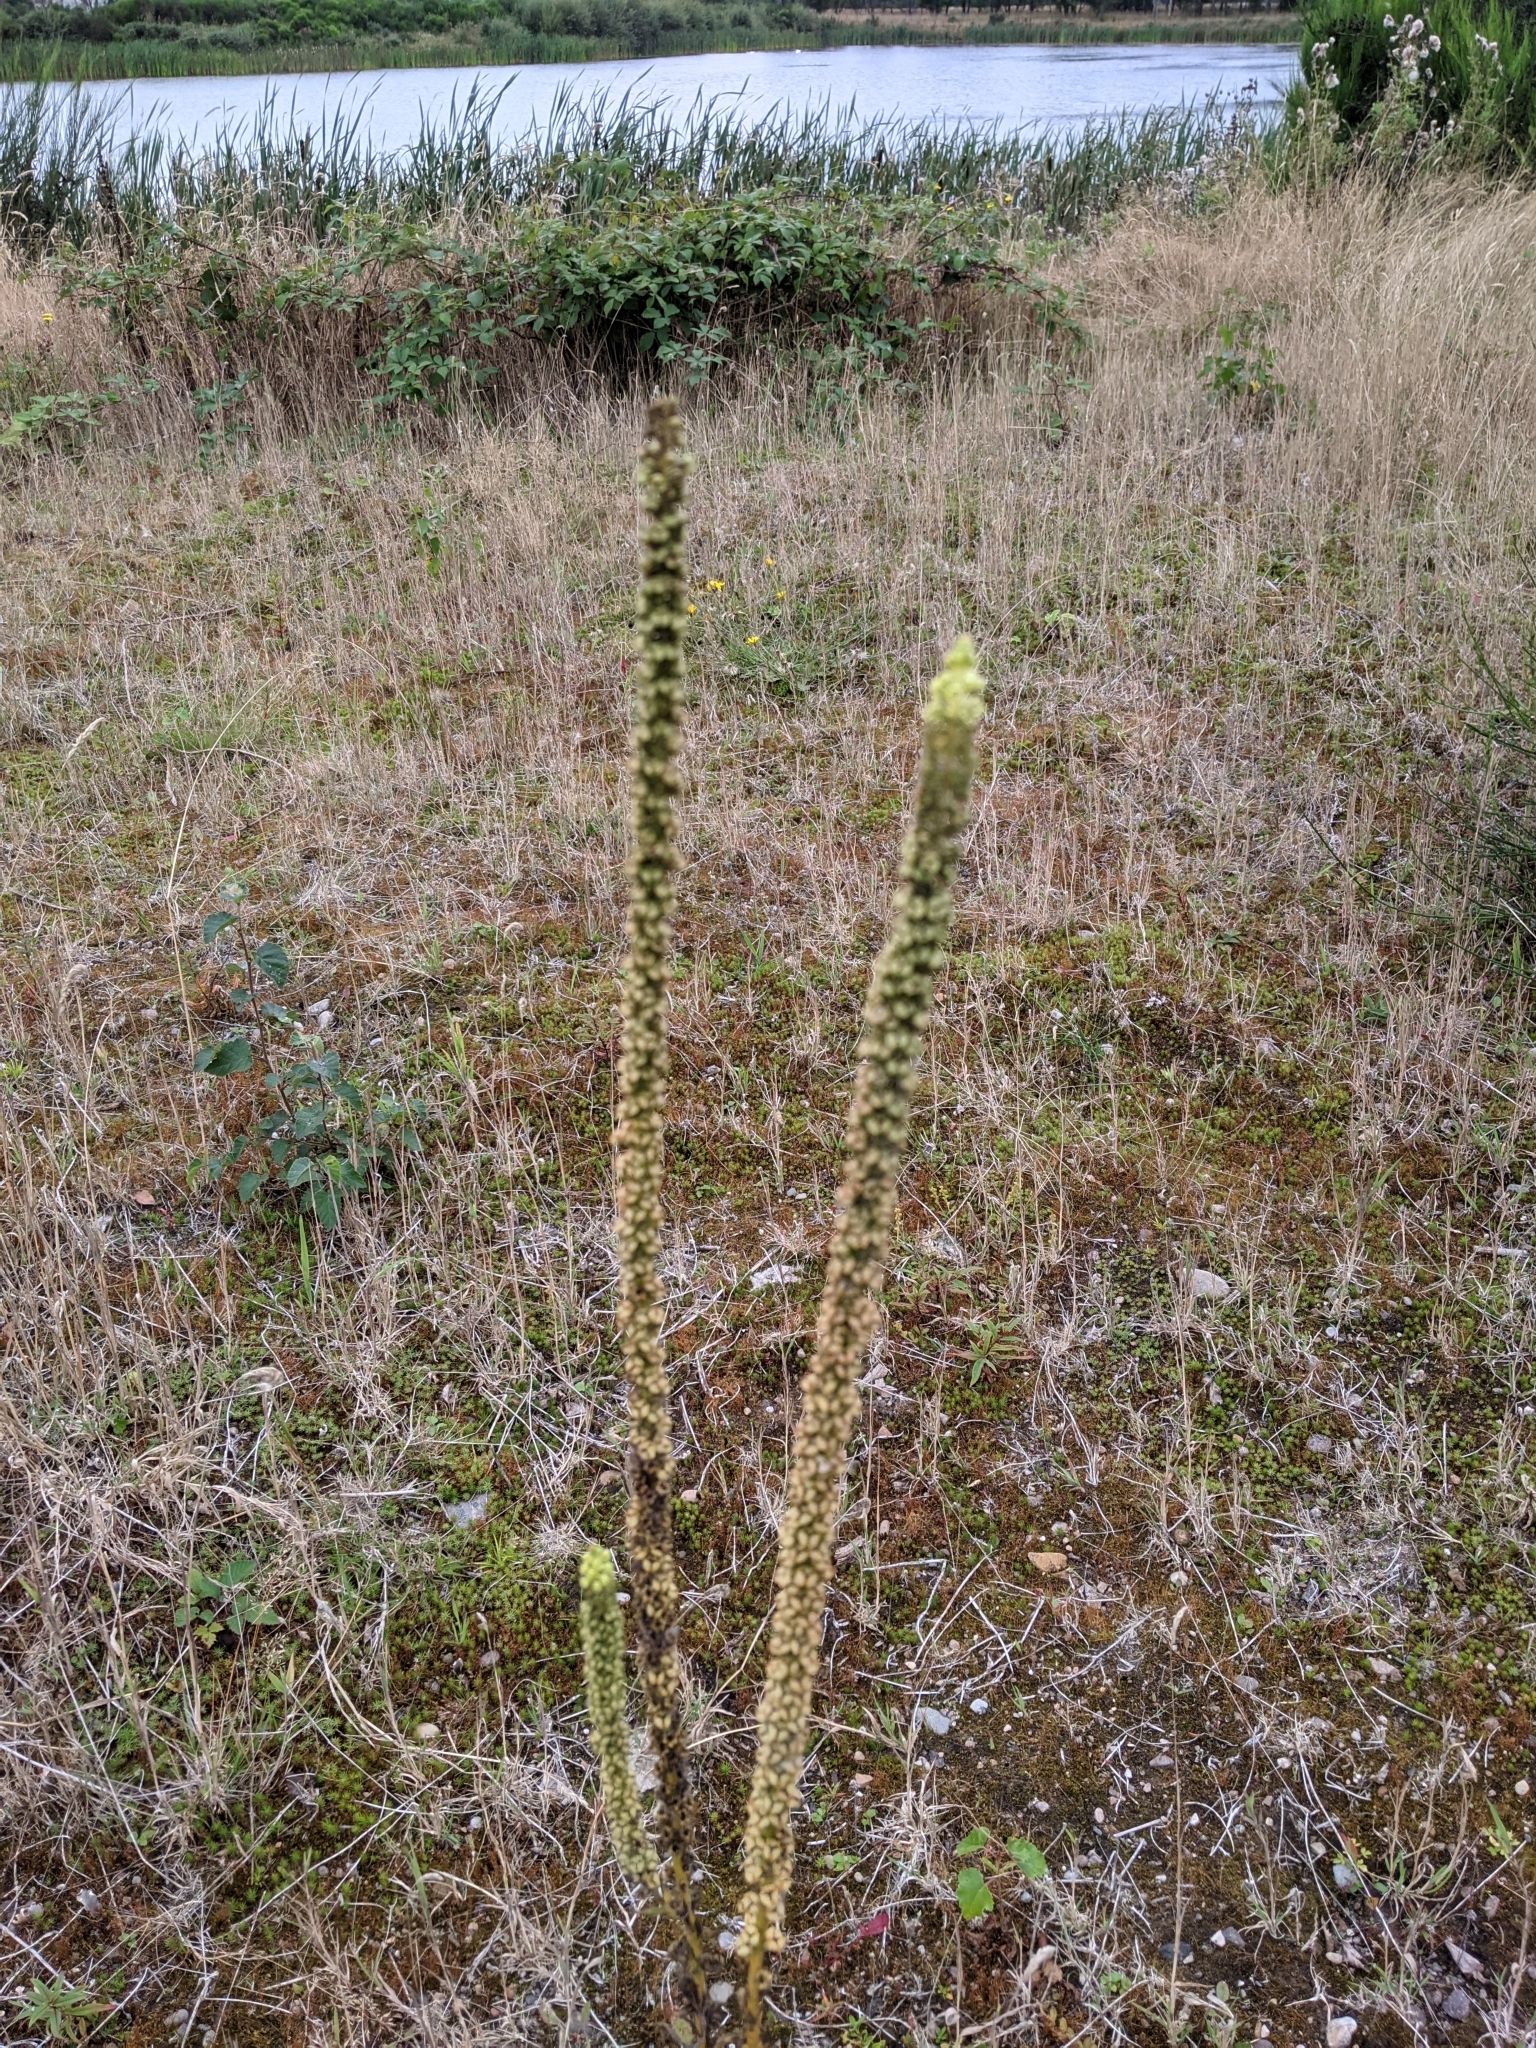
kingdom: Plantae
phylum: Tracheophyta
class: Magnoliopsida
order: Brassicales
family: Resedaceae
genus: Reseda
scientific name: Reseda luteola
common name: Weld
